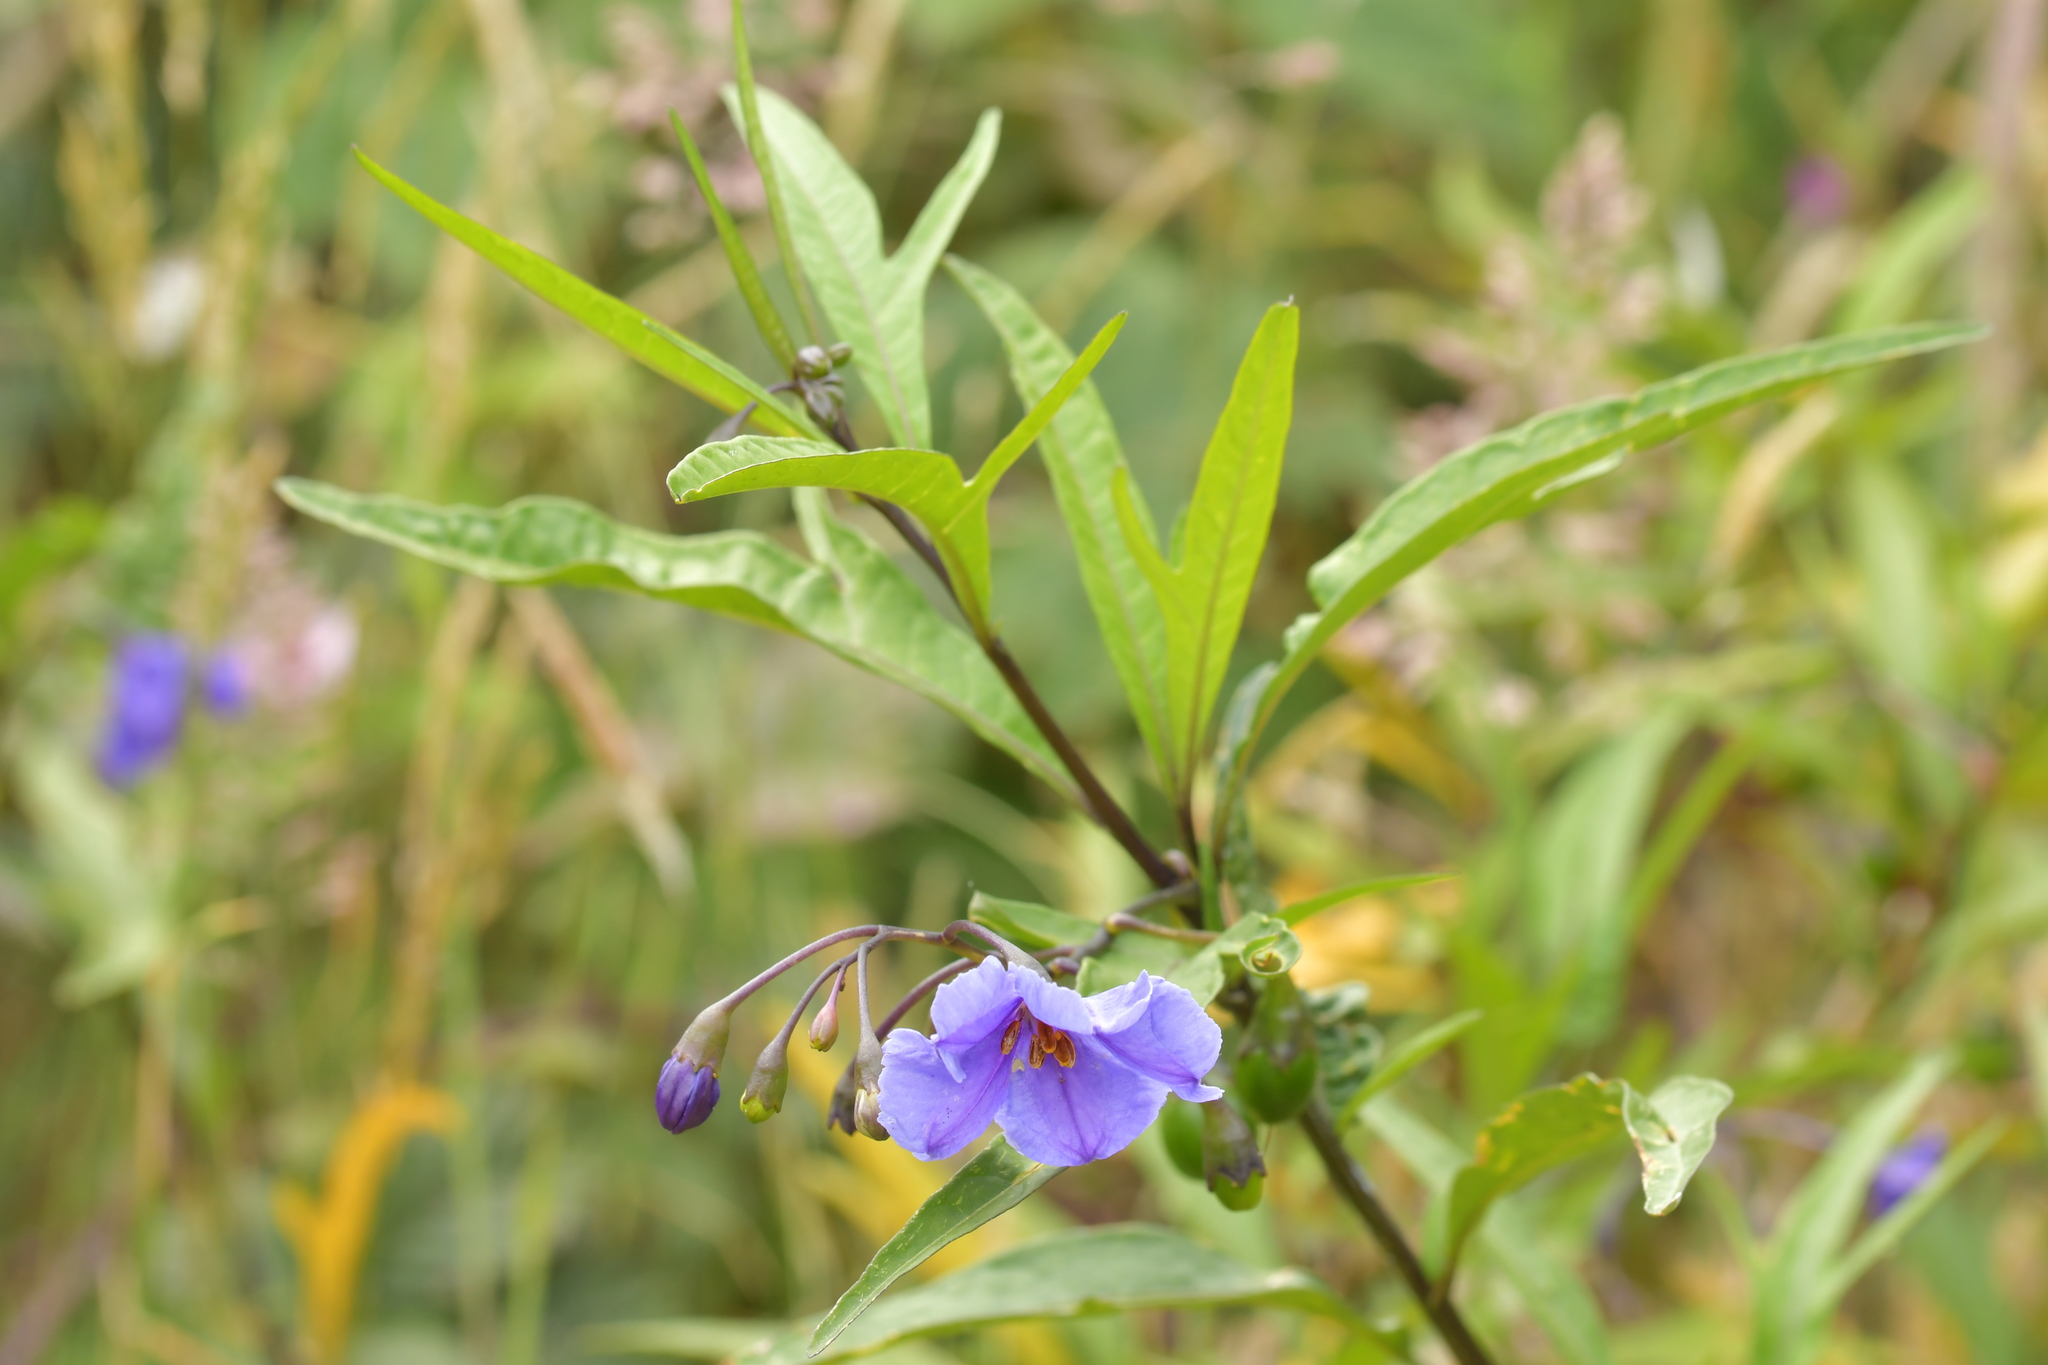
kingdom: Plantae
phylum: Tracheophyta
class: Magnoliopsida
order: Solanales
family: Solanaceae
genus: Solanum
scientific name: Solanum laciniatum
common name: Kangaroo-apple
